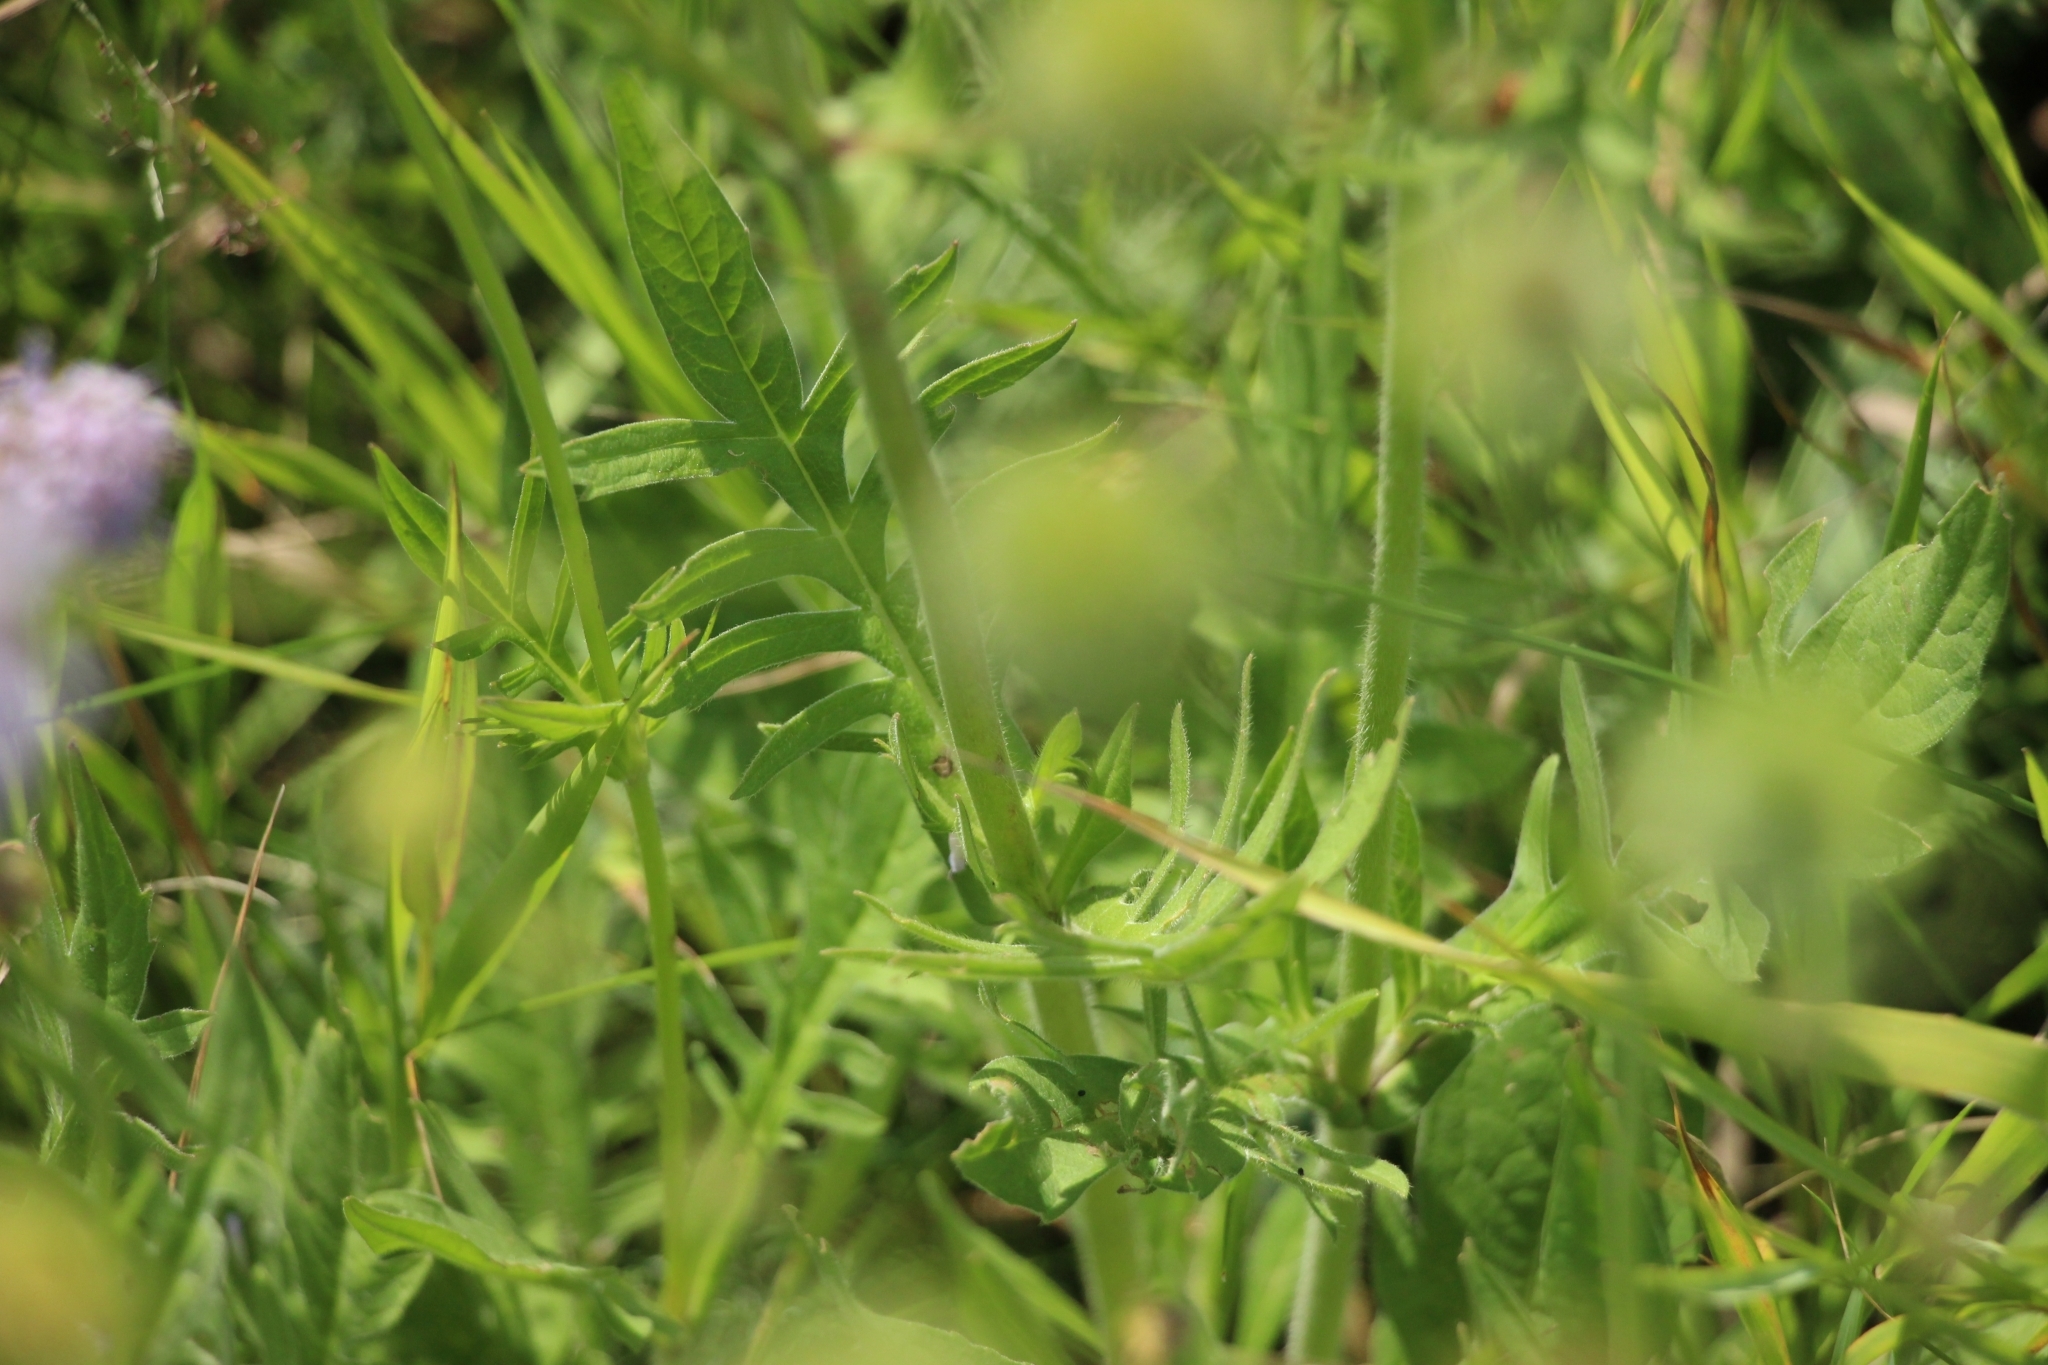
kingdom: Plantae
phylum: Tracheophyta
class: Magnoliopsida
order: Dipsacales
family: Caprifoliaceae
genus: Knautia
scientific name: Knautia arvensis
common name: Field scabiosa
